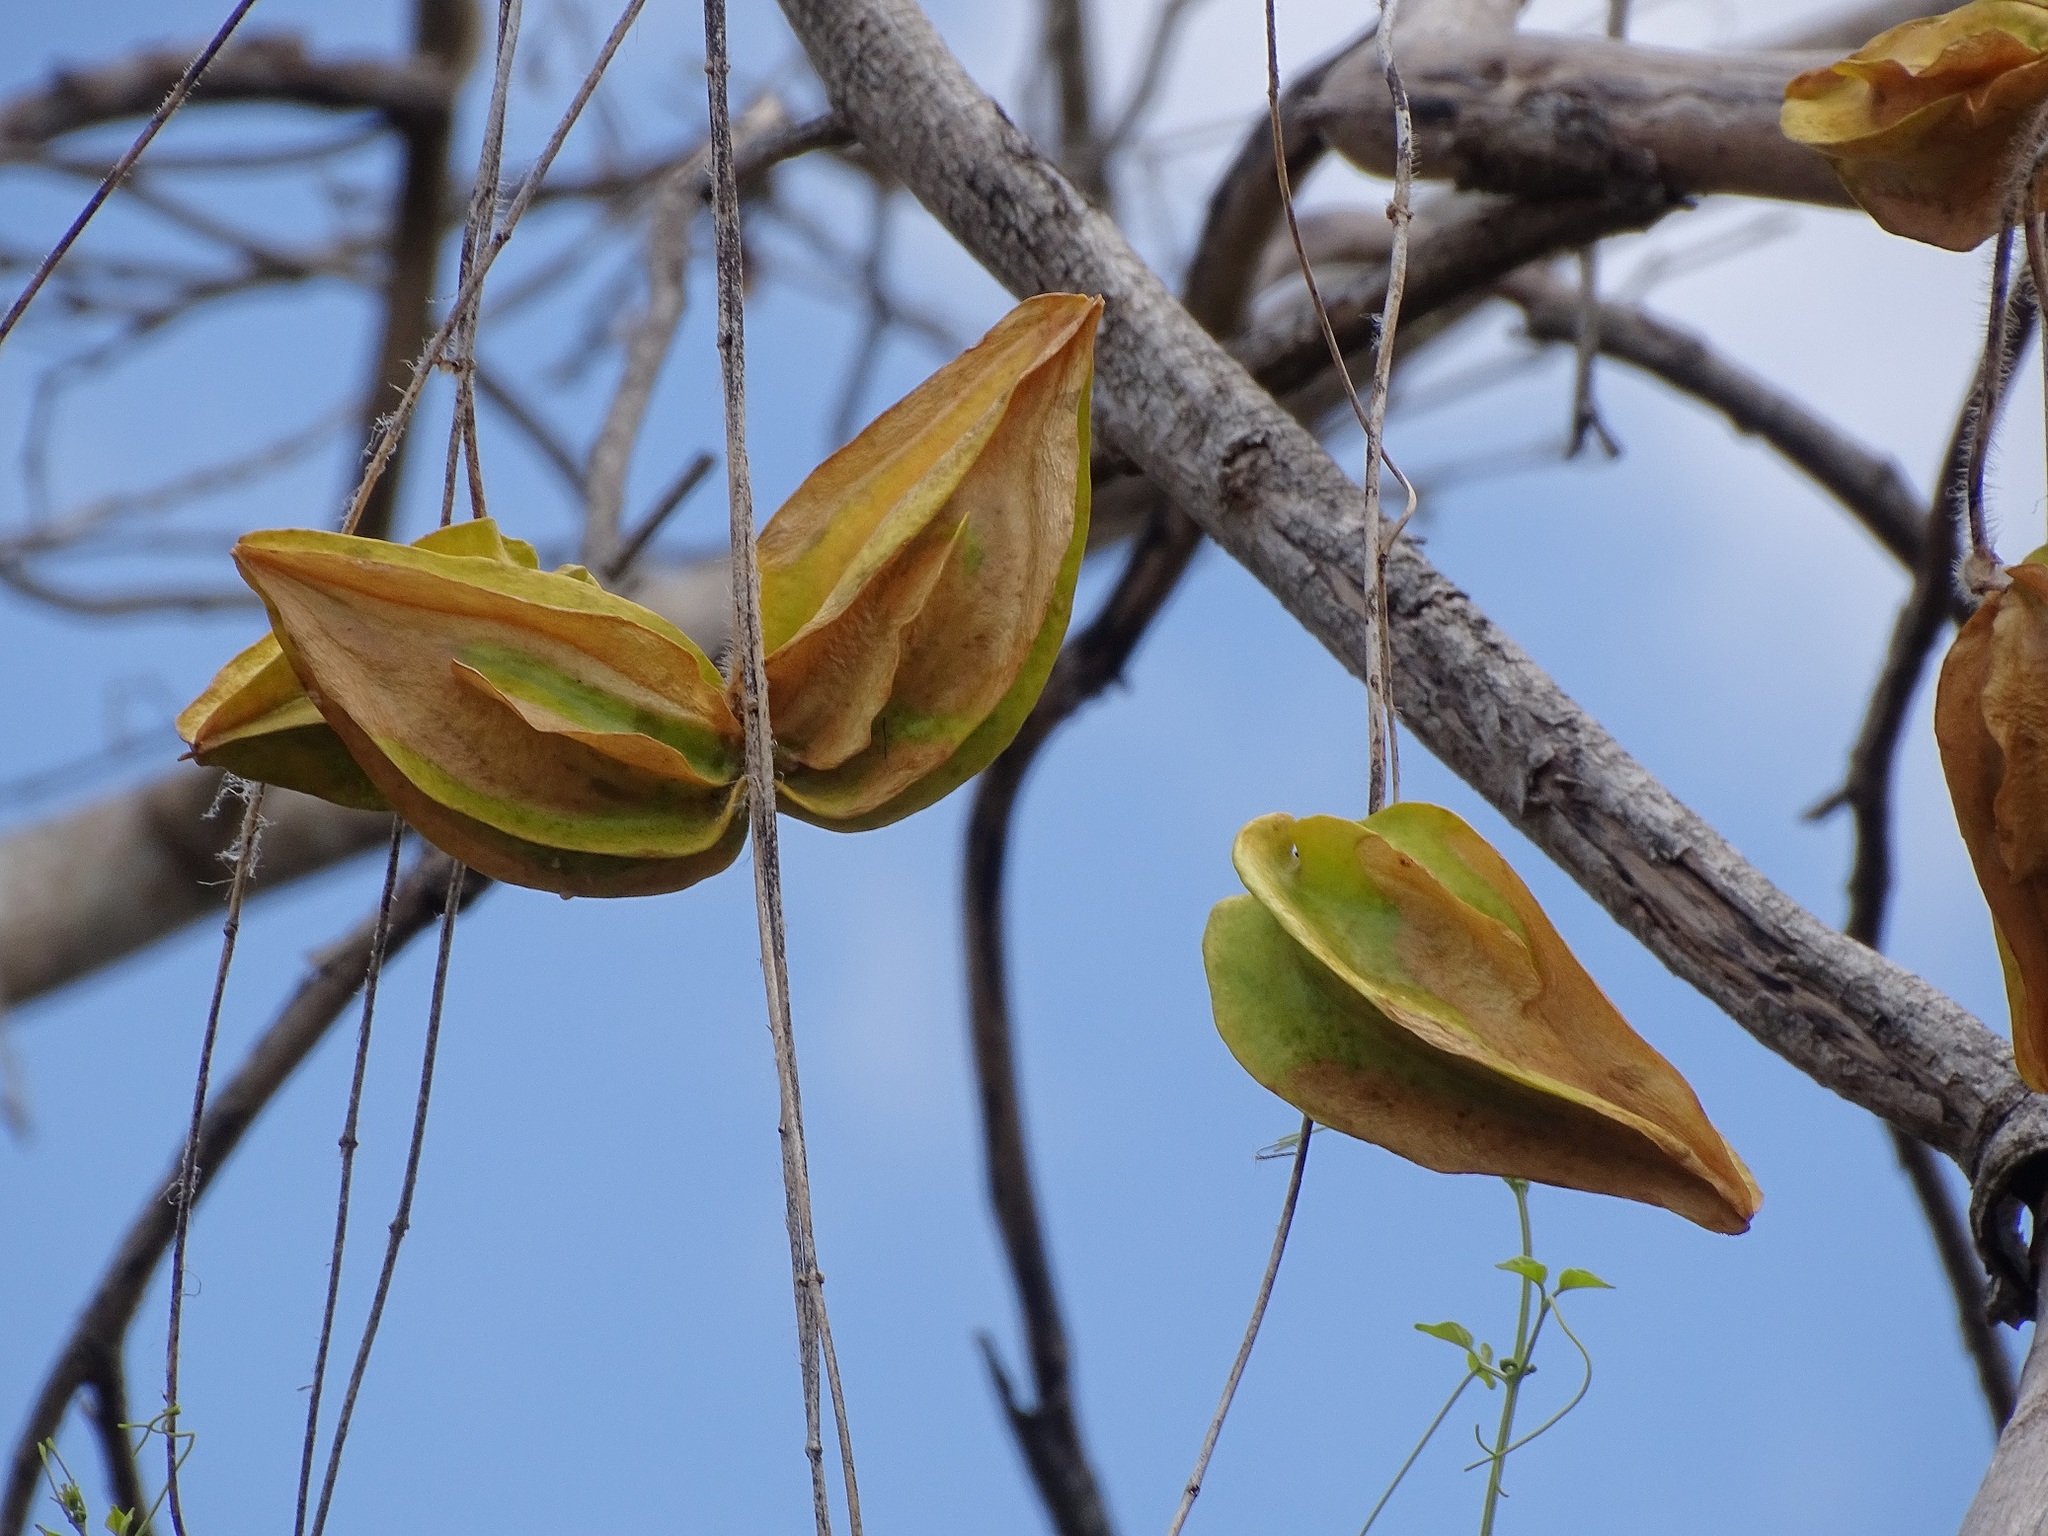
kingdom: Plantae
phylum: Tracheophyta
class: Magnoliopsida
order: Gentianales
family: Apocynaceae
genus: Macroscepis
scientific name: Macroscepis yucatanensis
